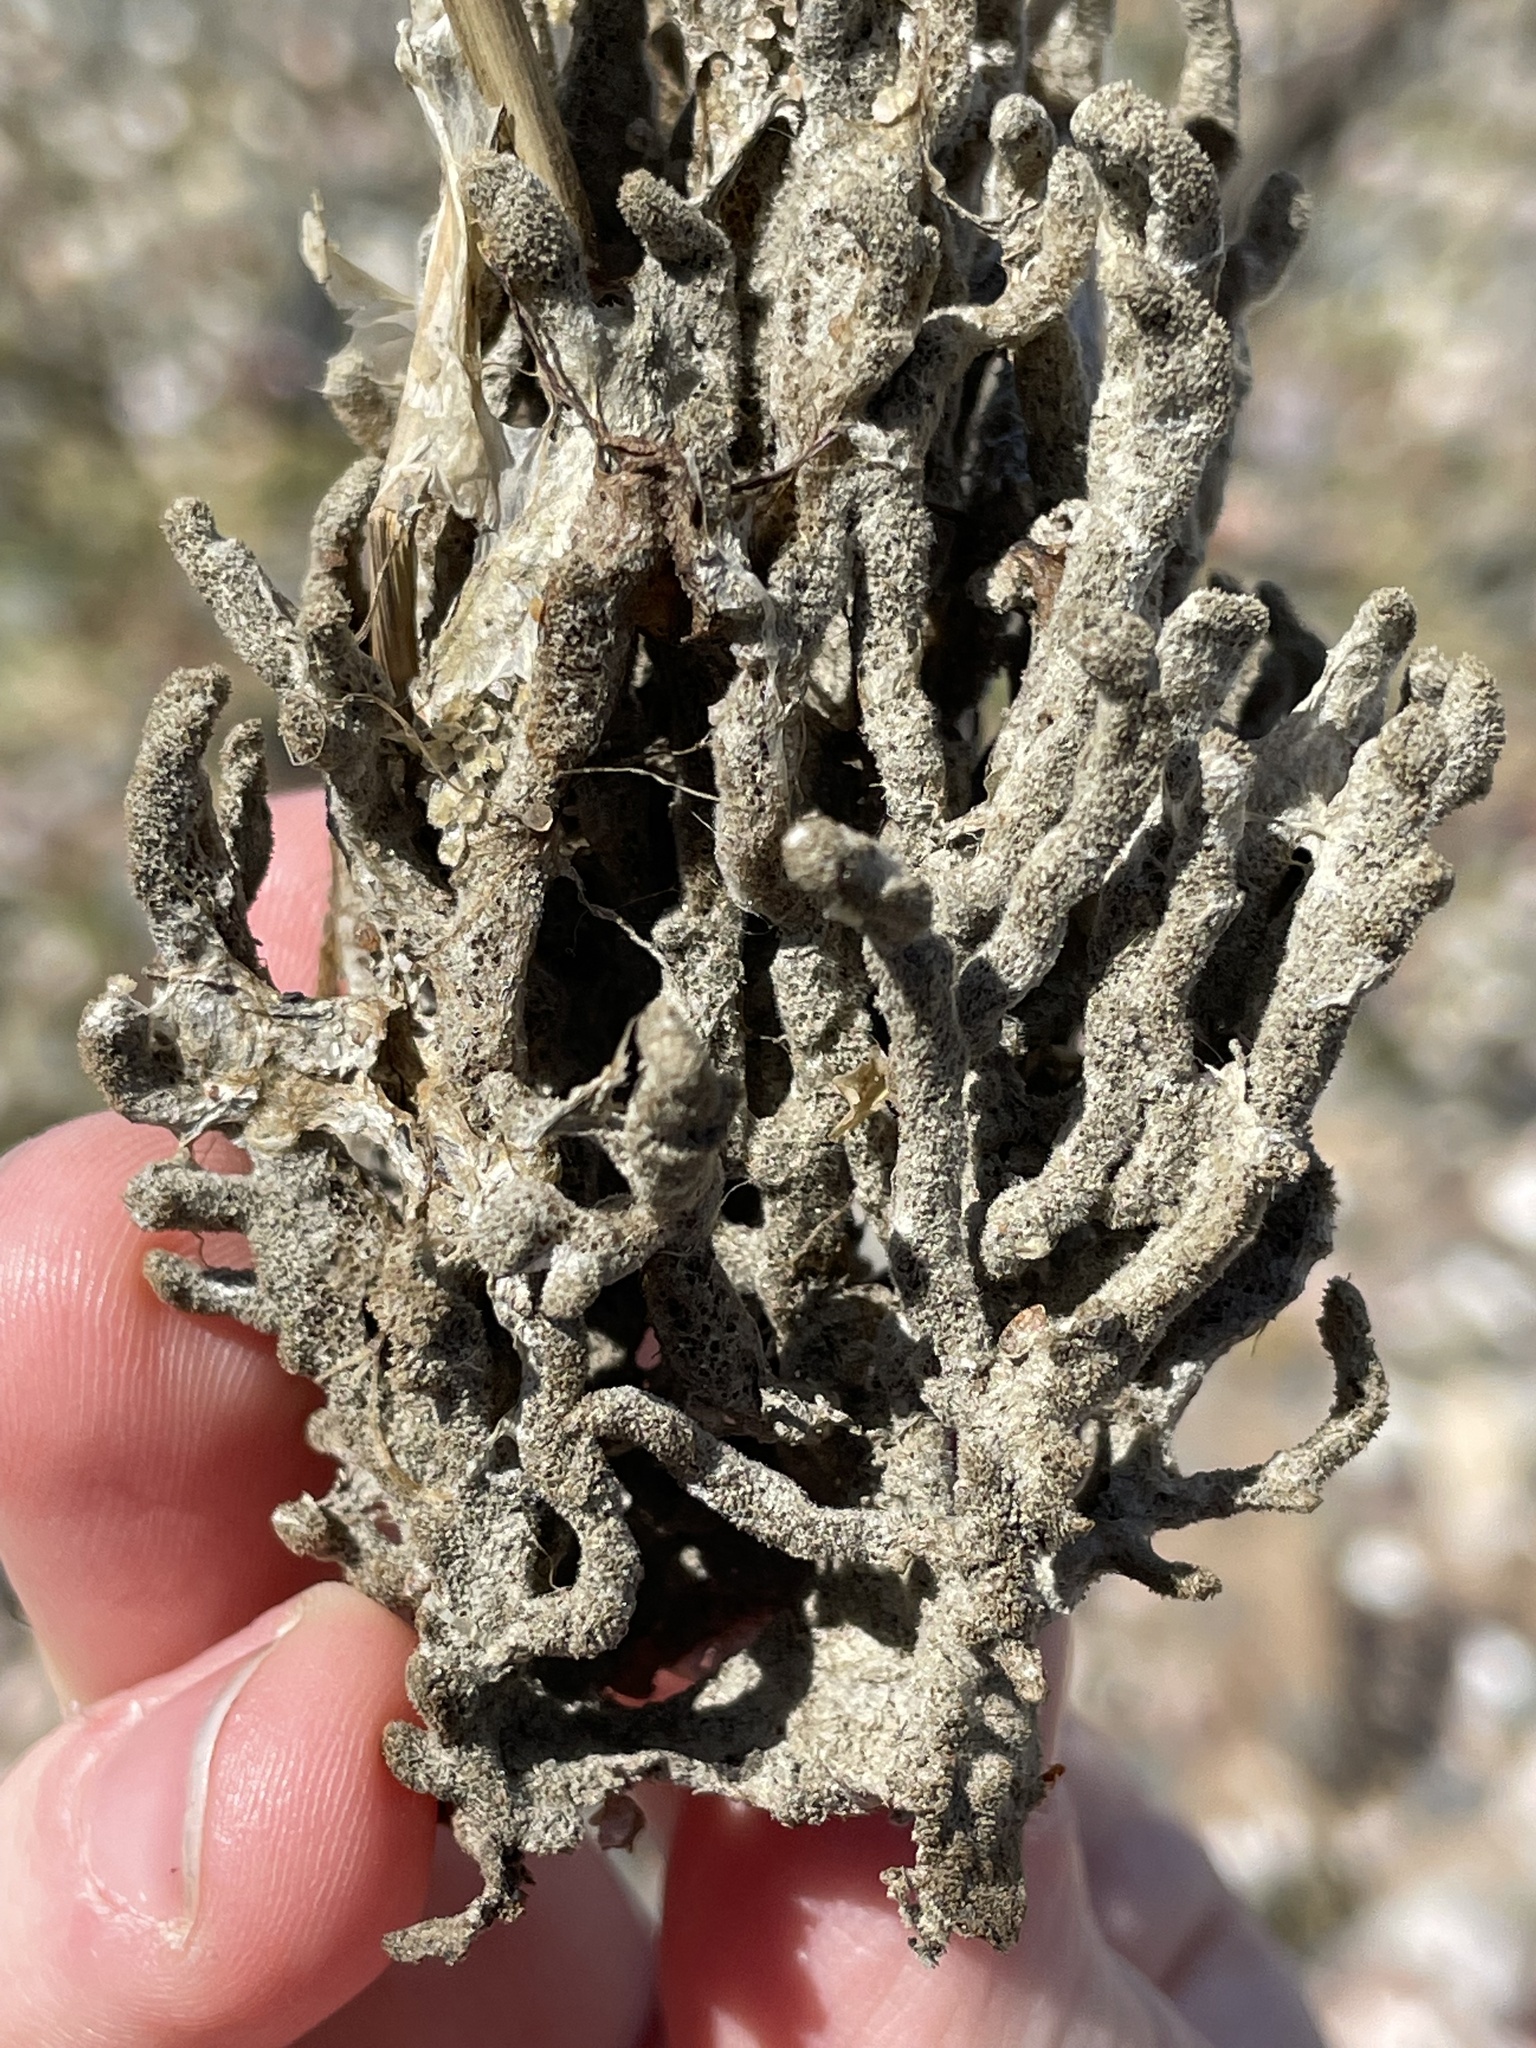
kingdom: Animalia
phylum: Porifera
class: Demospongiae
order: Poecilosclerida
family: Microcionidae
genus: Clathria
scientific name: Clathria prolifera
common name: Red beard sponge
